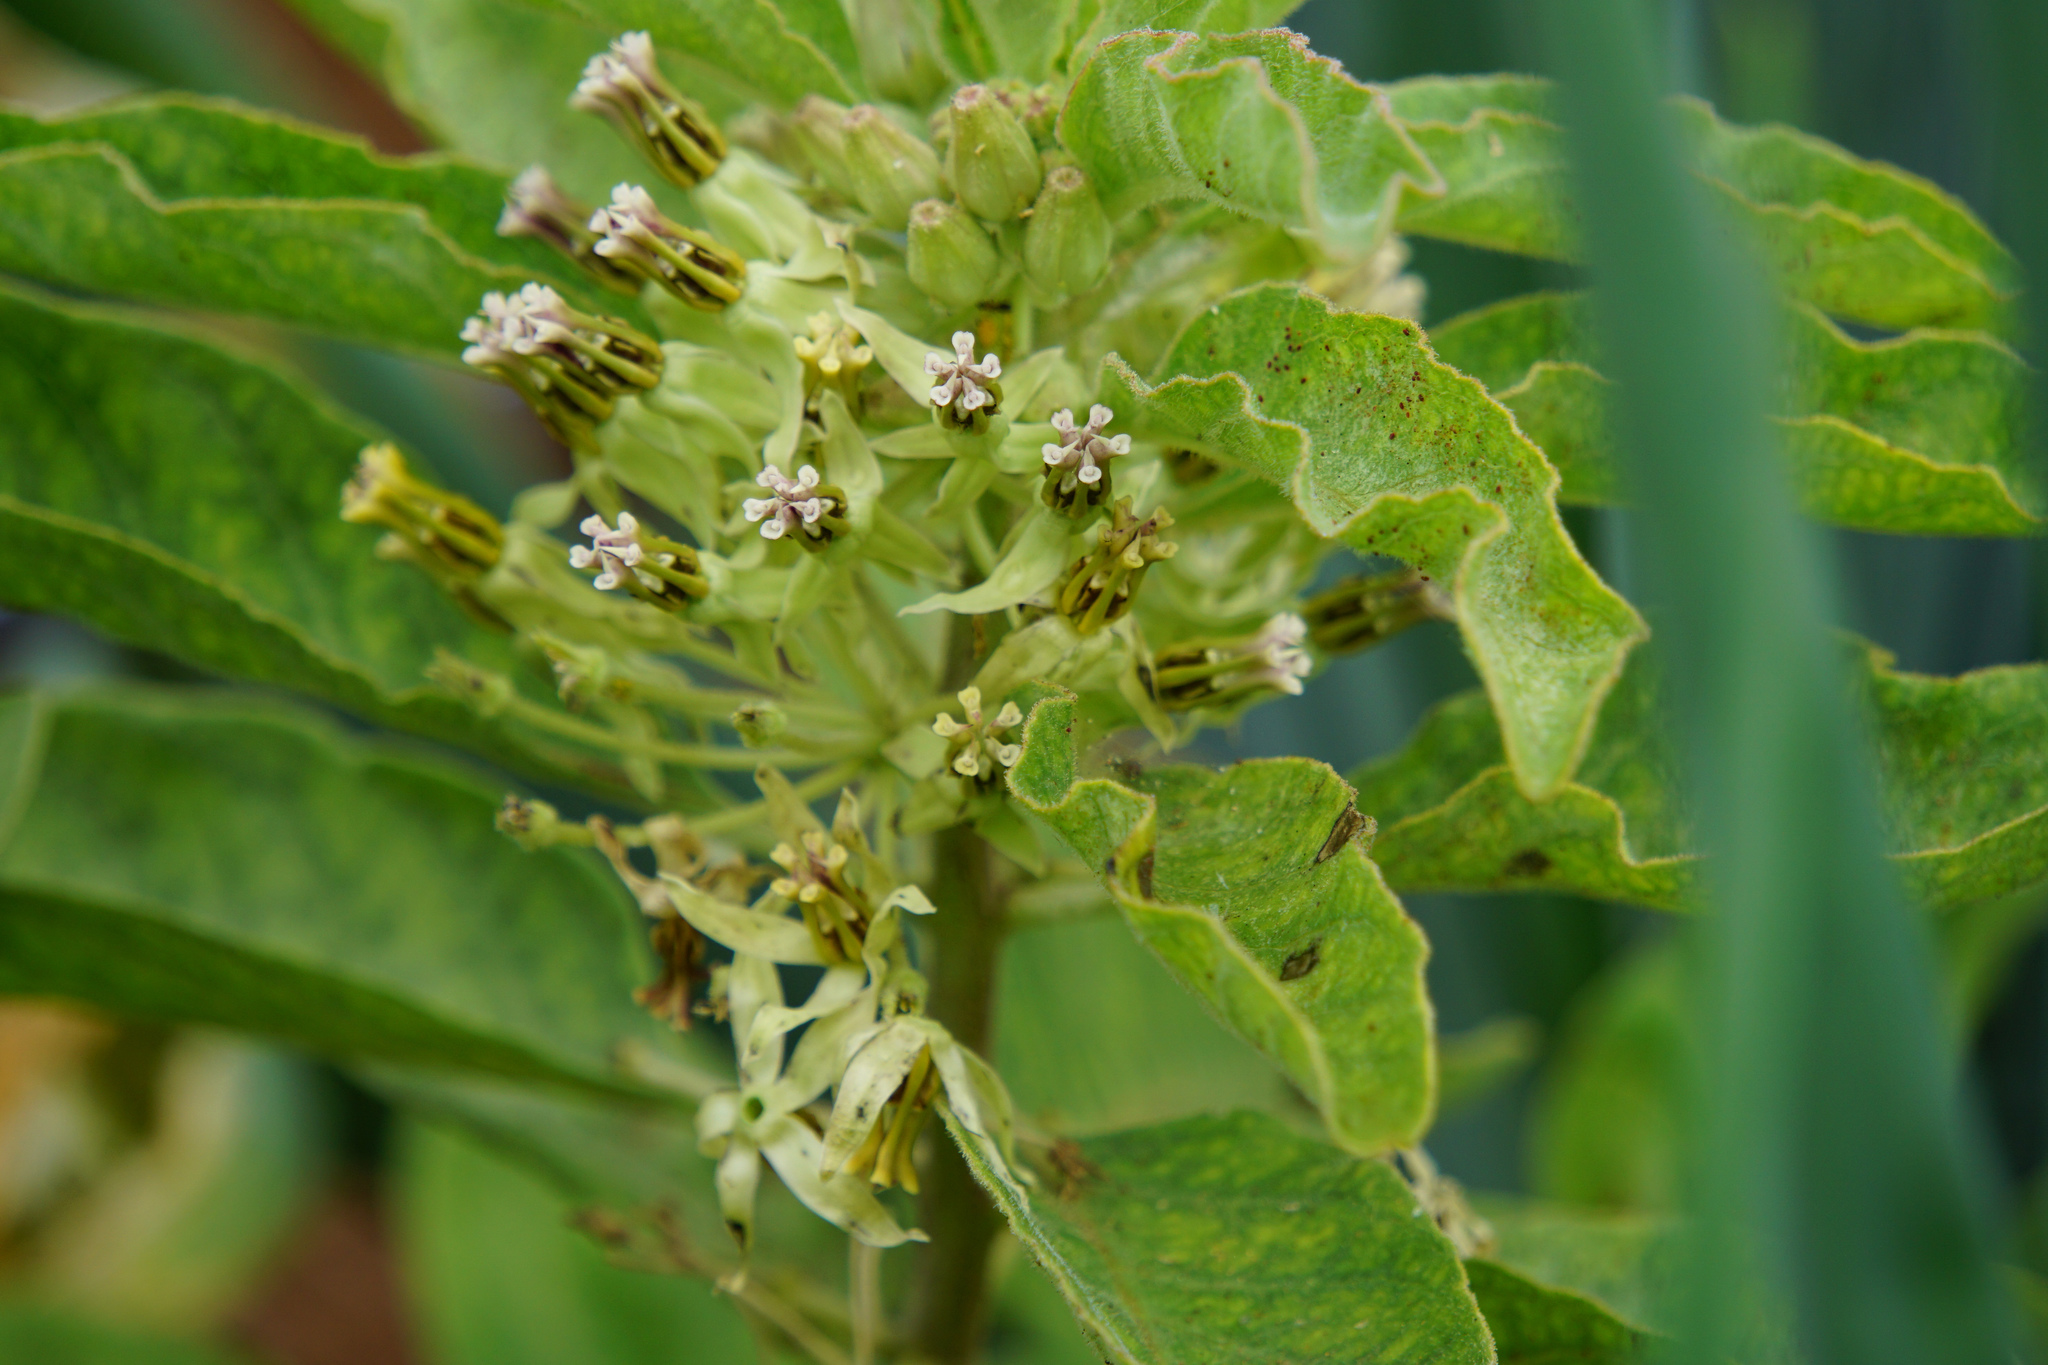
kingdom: Plantae
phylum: Tracheophyta
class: Magnoliopsida
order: Gentianales
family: Apocynaceae
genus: Asclepias
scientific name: Asclepias oenotheroides
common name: Zizotes milkweed
